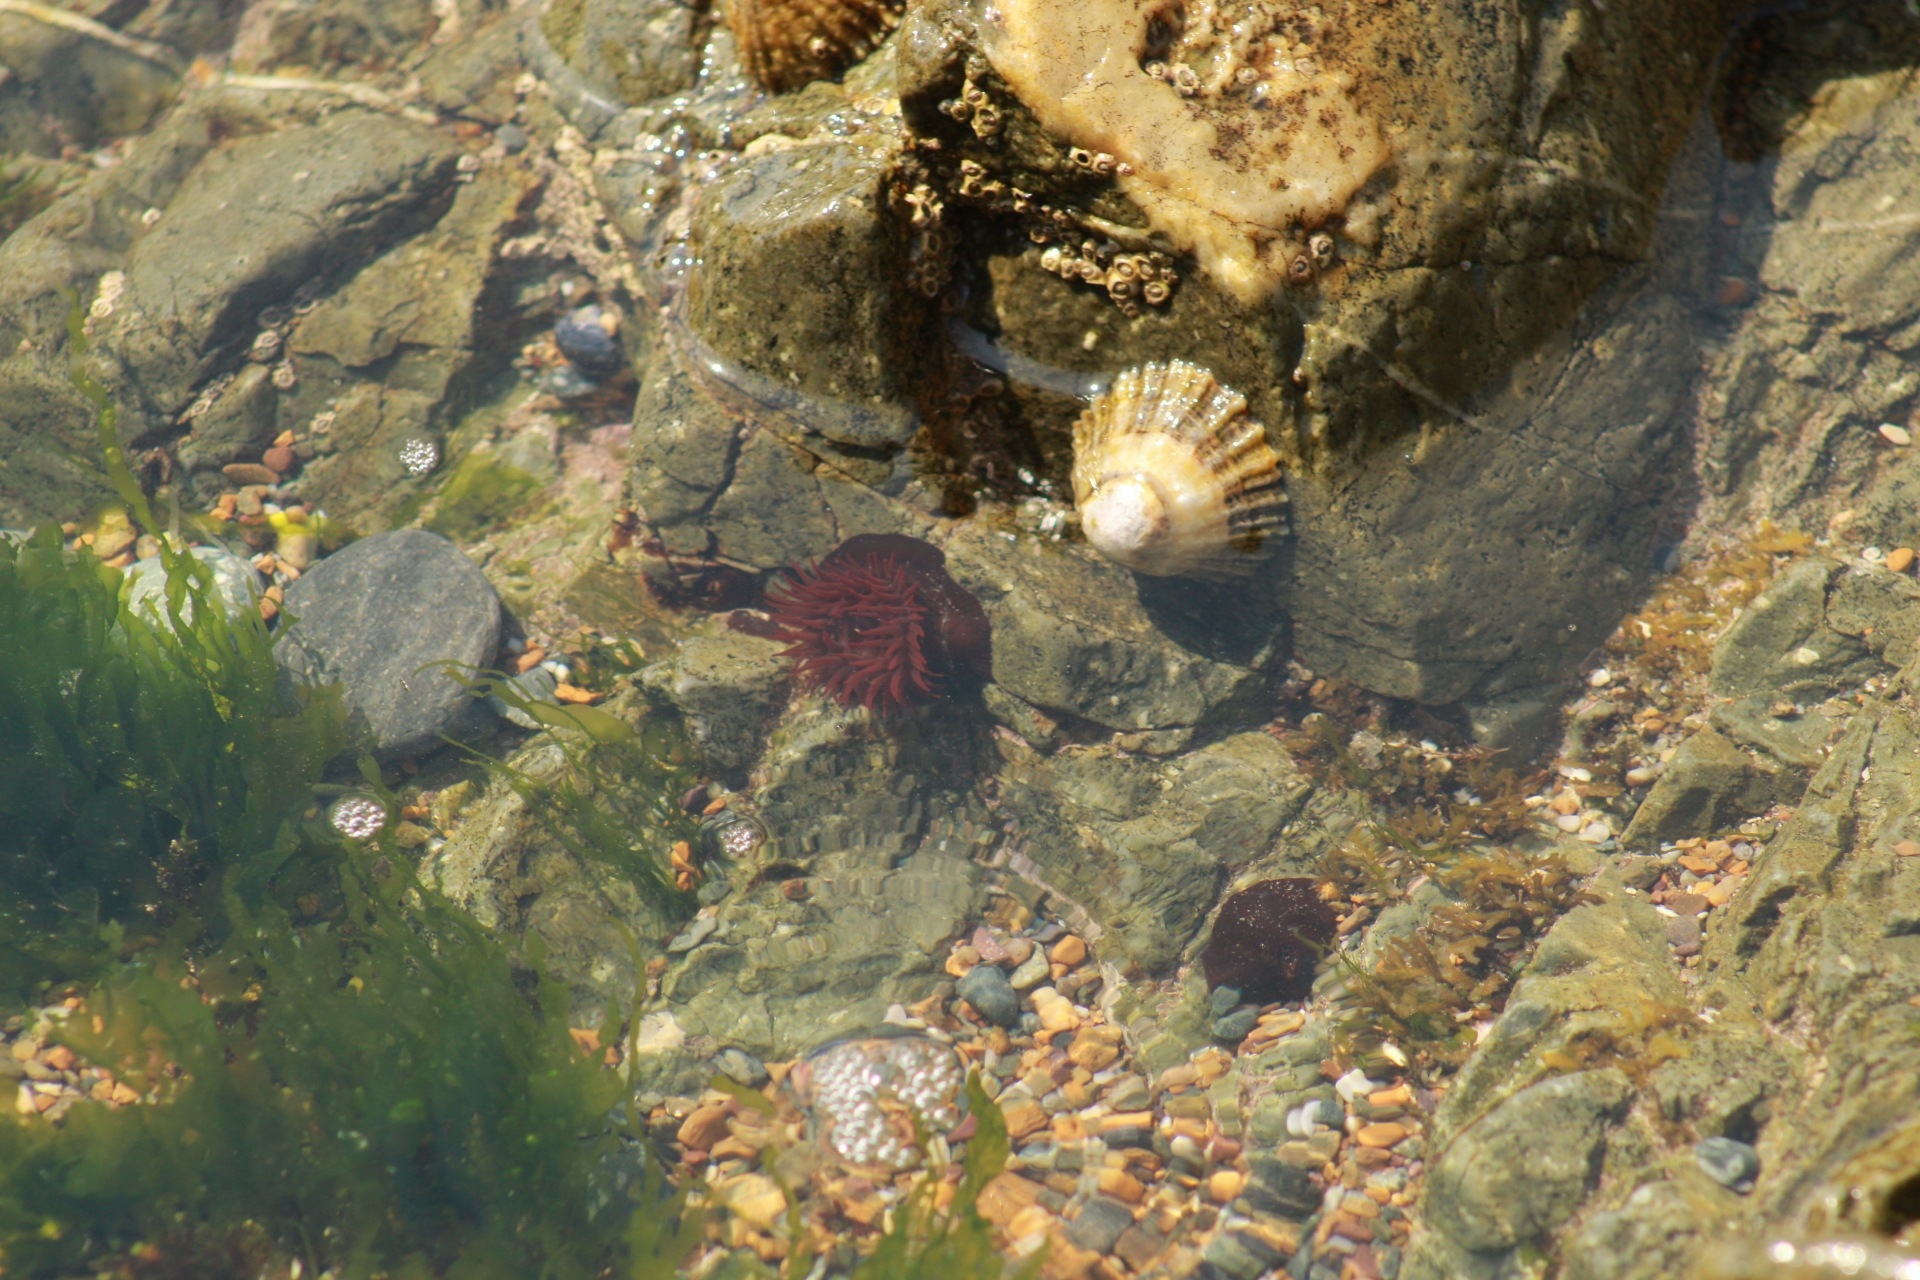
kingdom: Animalia
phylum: Cnidaria
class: Anthozoa
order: Actiniaria
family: Actiniidae
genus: Actinia
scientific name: Actinia equina
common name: Beadlet anemone
